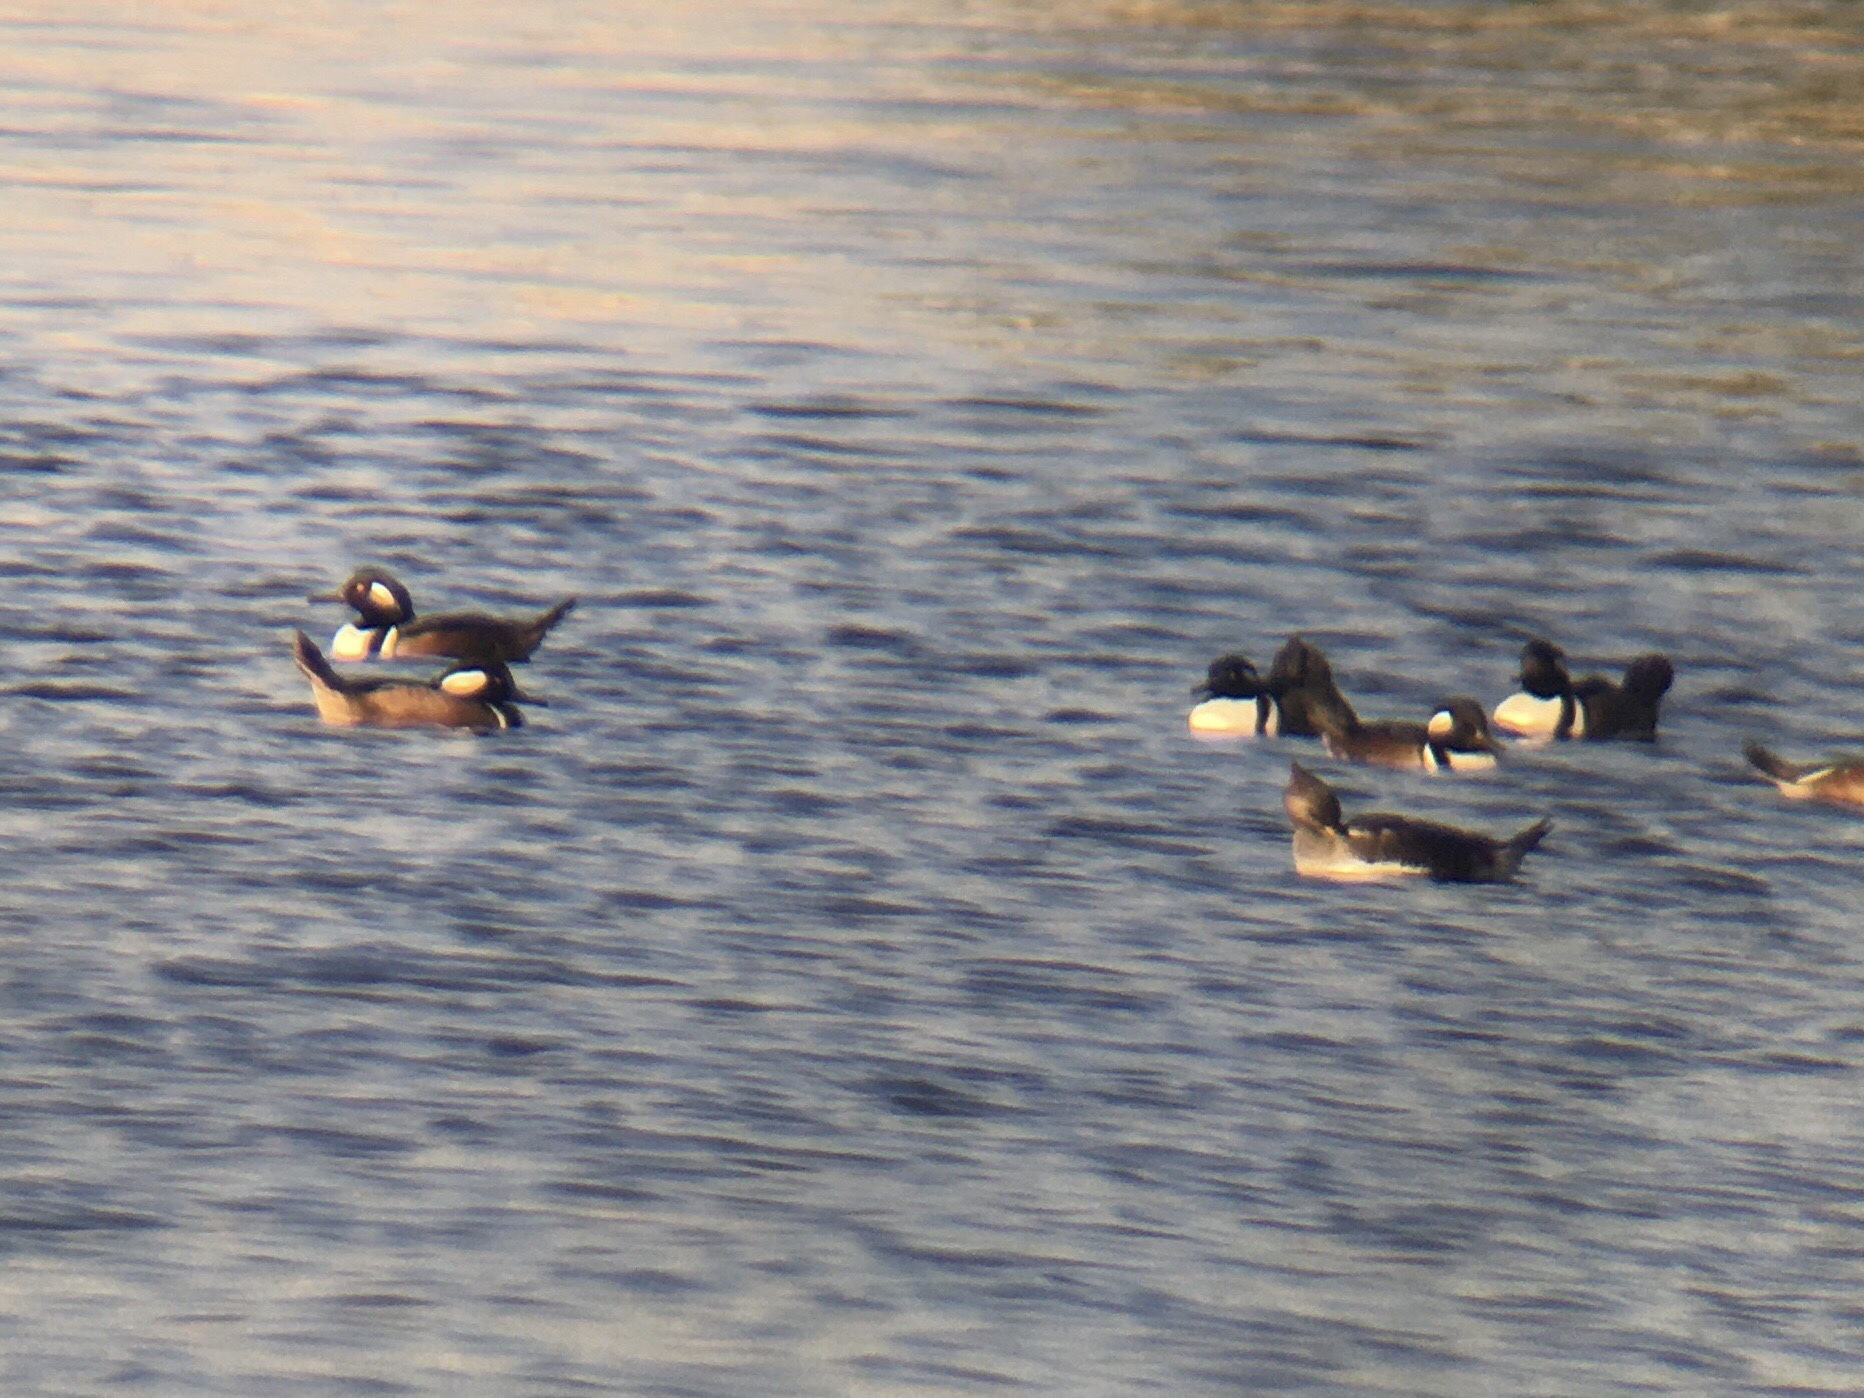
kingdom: Animalia
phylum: Chordata
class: Aves
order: Anseriformes
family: Anatidae
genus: Lophodytes
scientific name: Lophodytes cucullatus
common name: Hooded merganser
